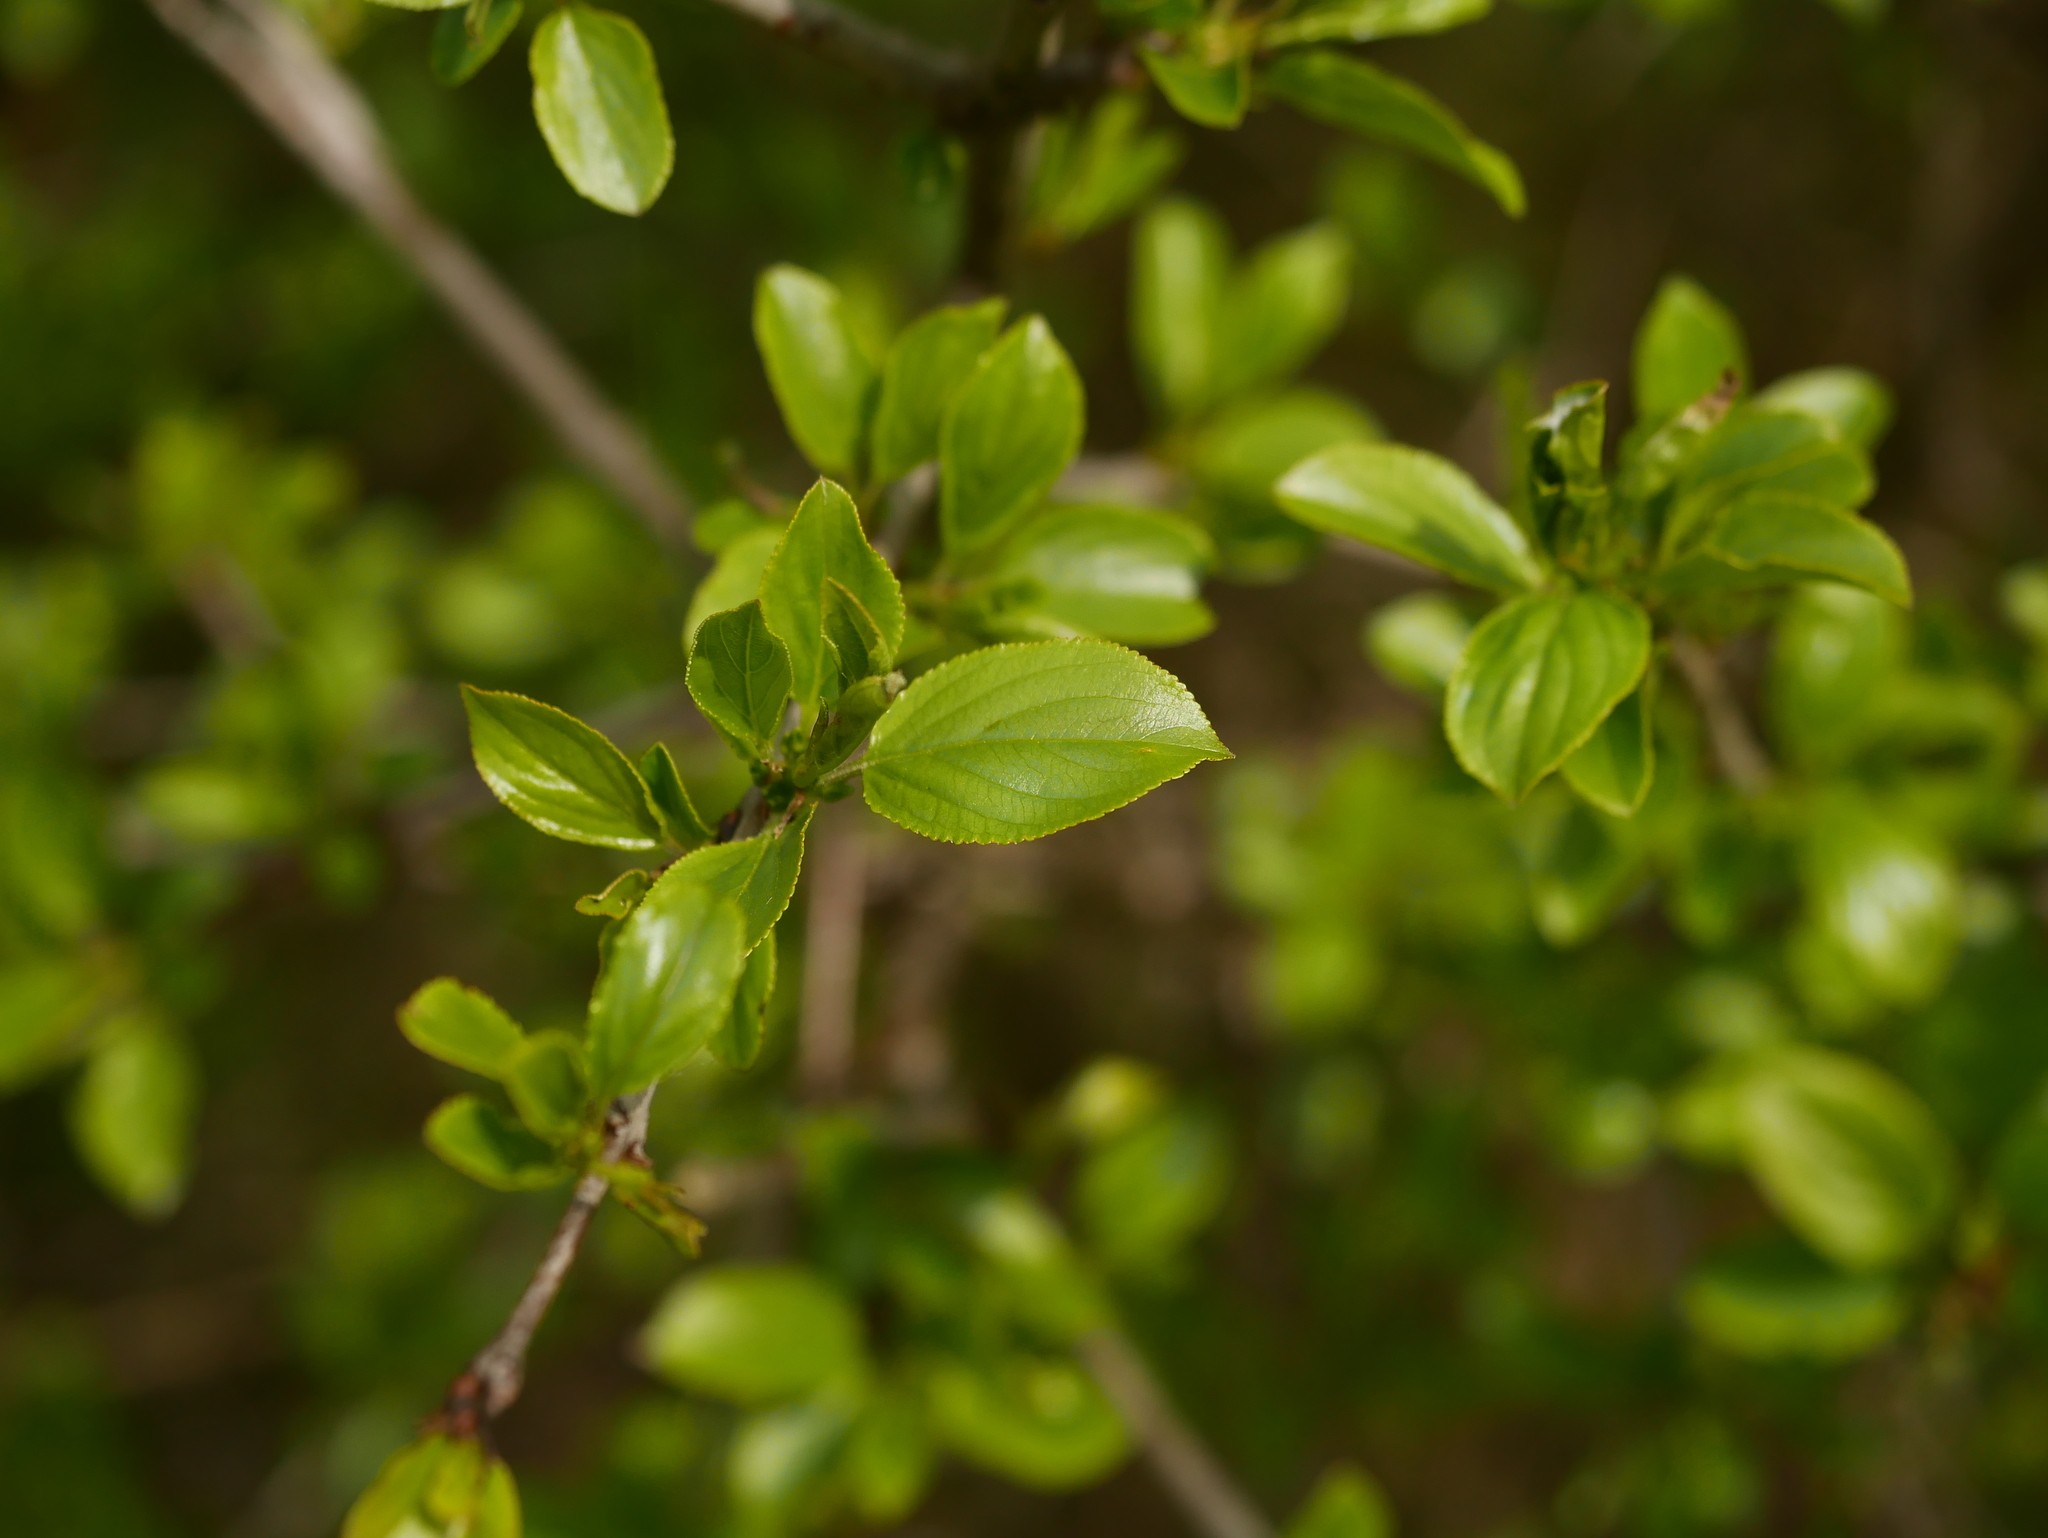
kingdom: Plantae
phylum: Tracheophyta
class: Magnoliopsida
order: Rosales
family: Rhamnaceae
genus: Rhamnus
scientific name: Rhamnus cathartica
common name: Common buckthorn
